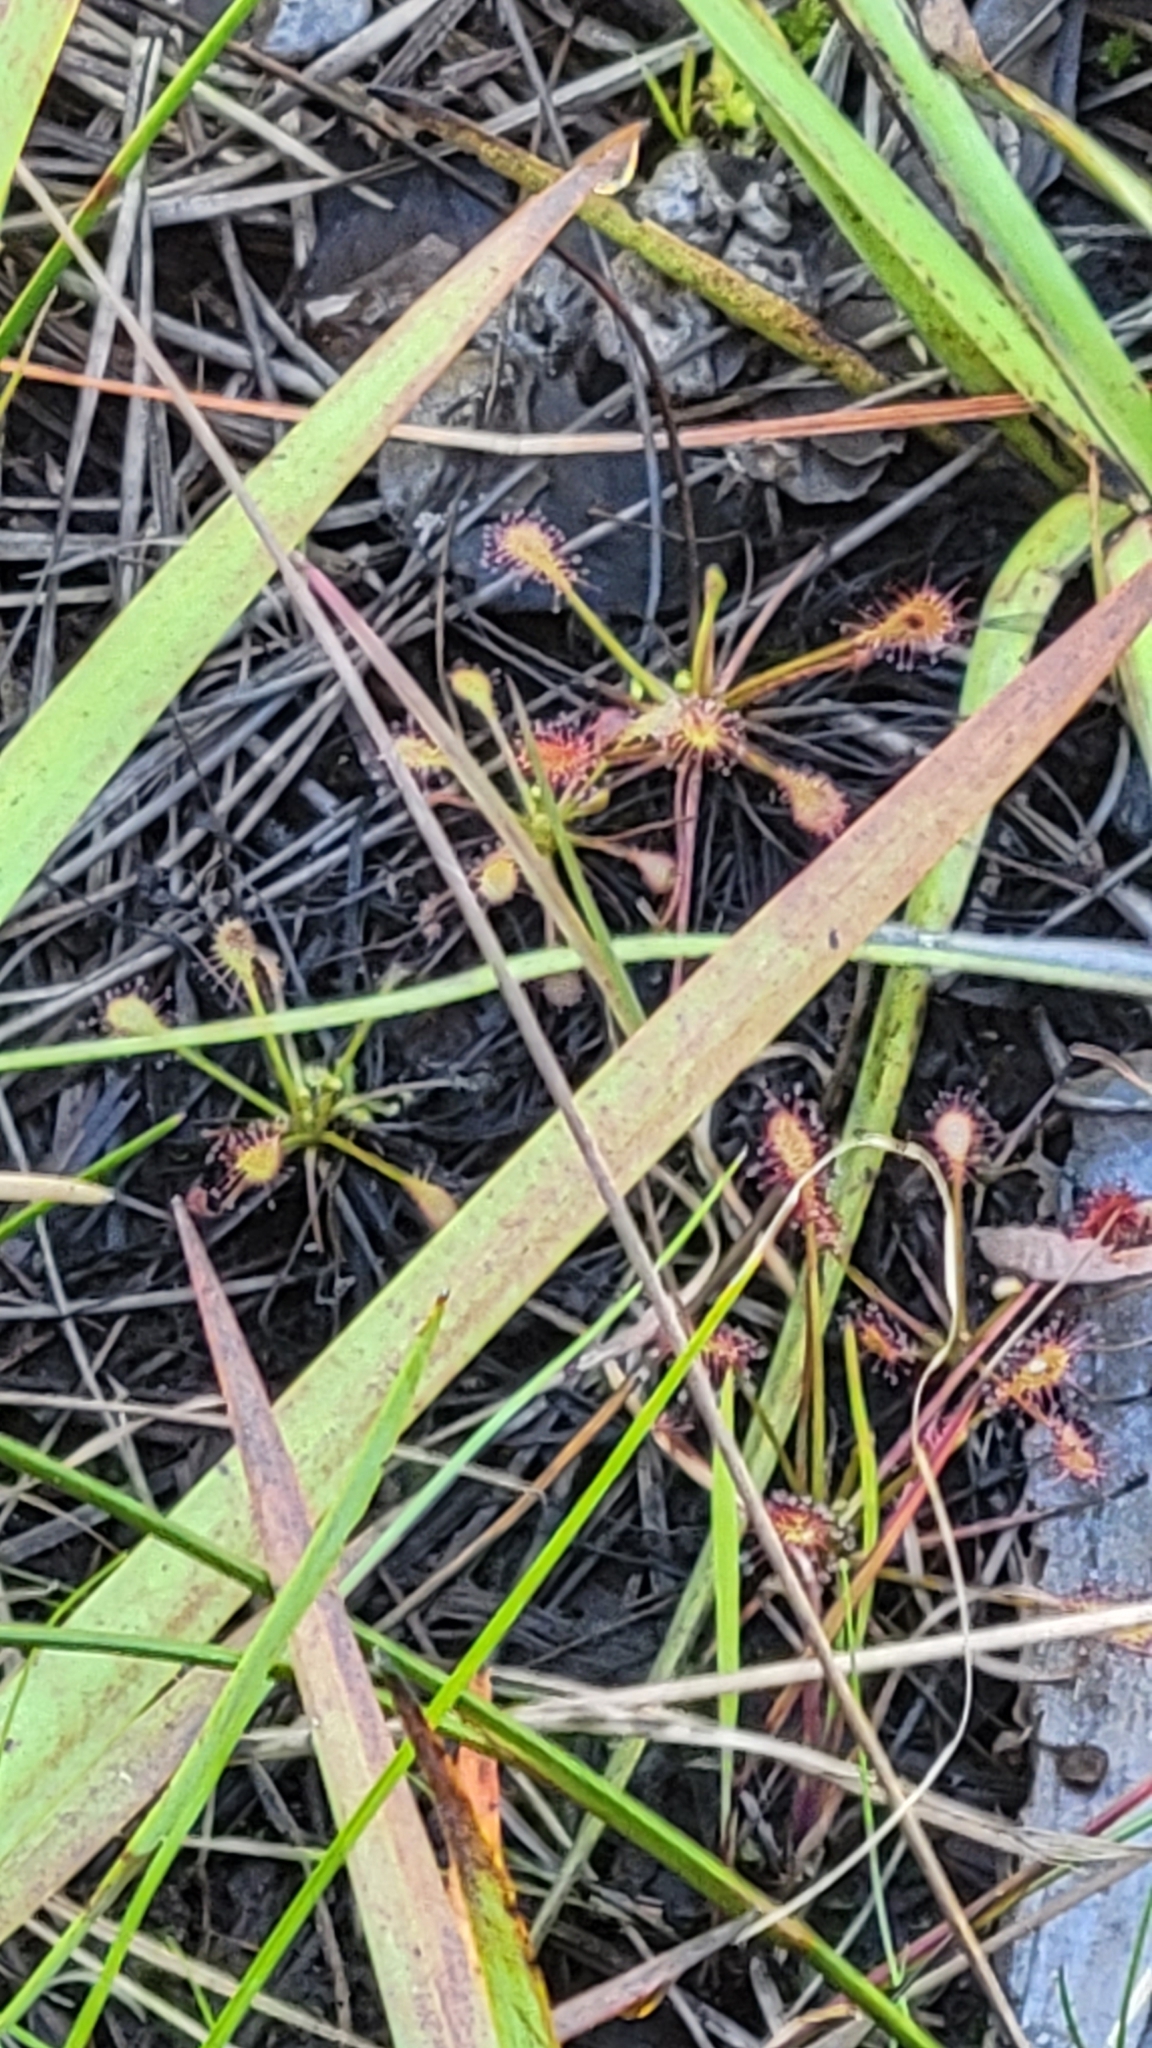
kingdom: Plantae
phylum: Tracheophyta
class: Magnoliopsida
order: Caryophyllales
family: Droseraceae
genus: Drosera
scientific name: Drosera intermedia
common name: Oblong-leaved sundew
